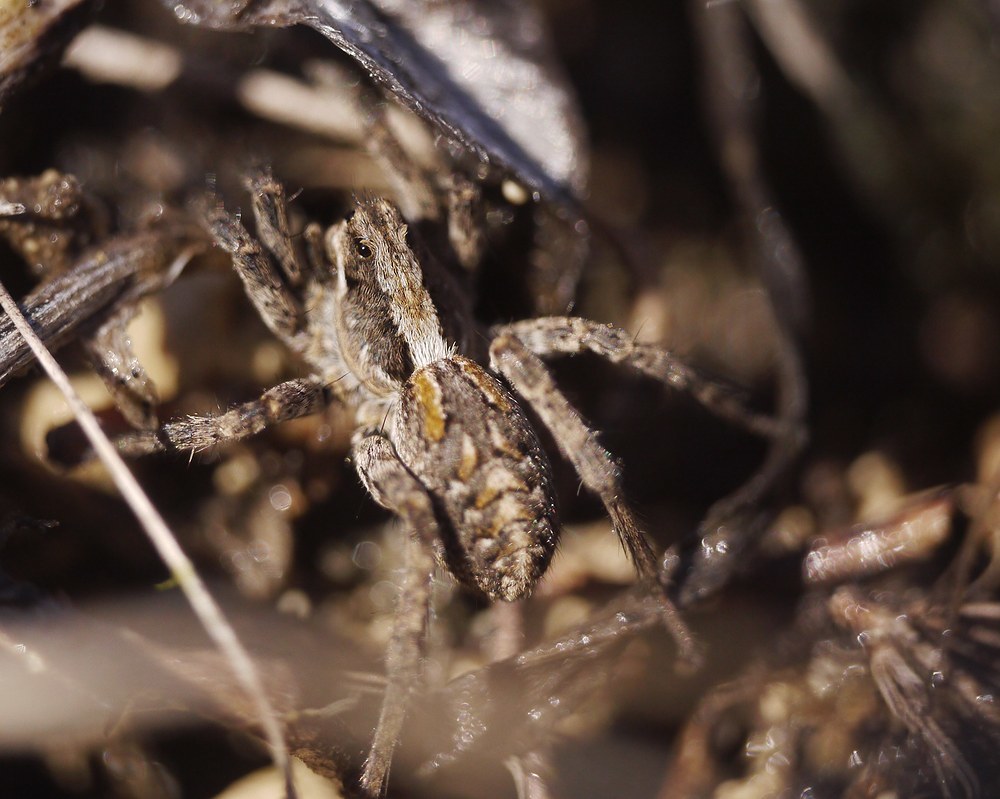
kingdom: Animalia
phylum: Arthropoda
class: Arachnida
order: Araneae
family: Lycosidae
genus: Alopecosa
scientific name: Alopecosa cursor
